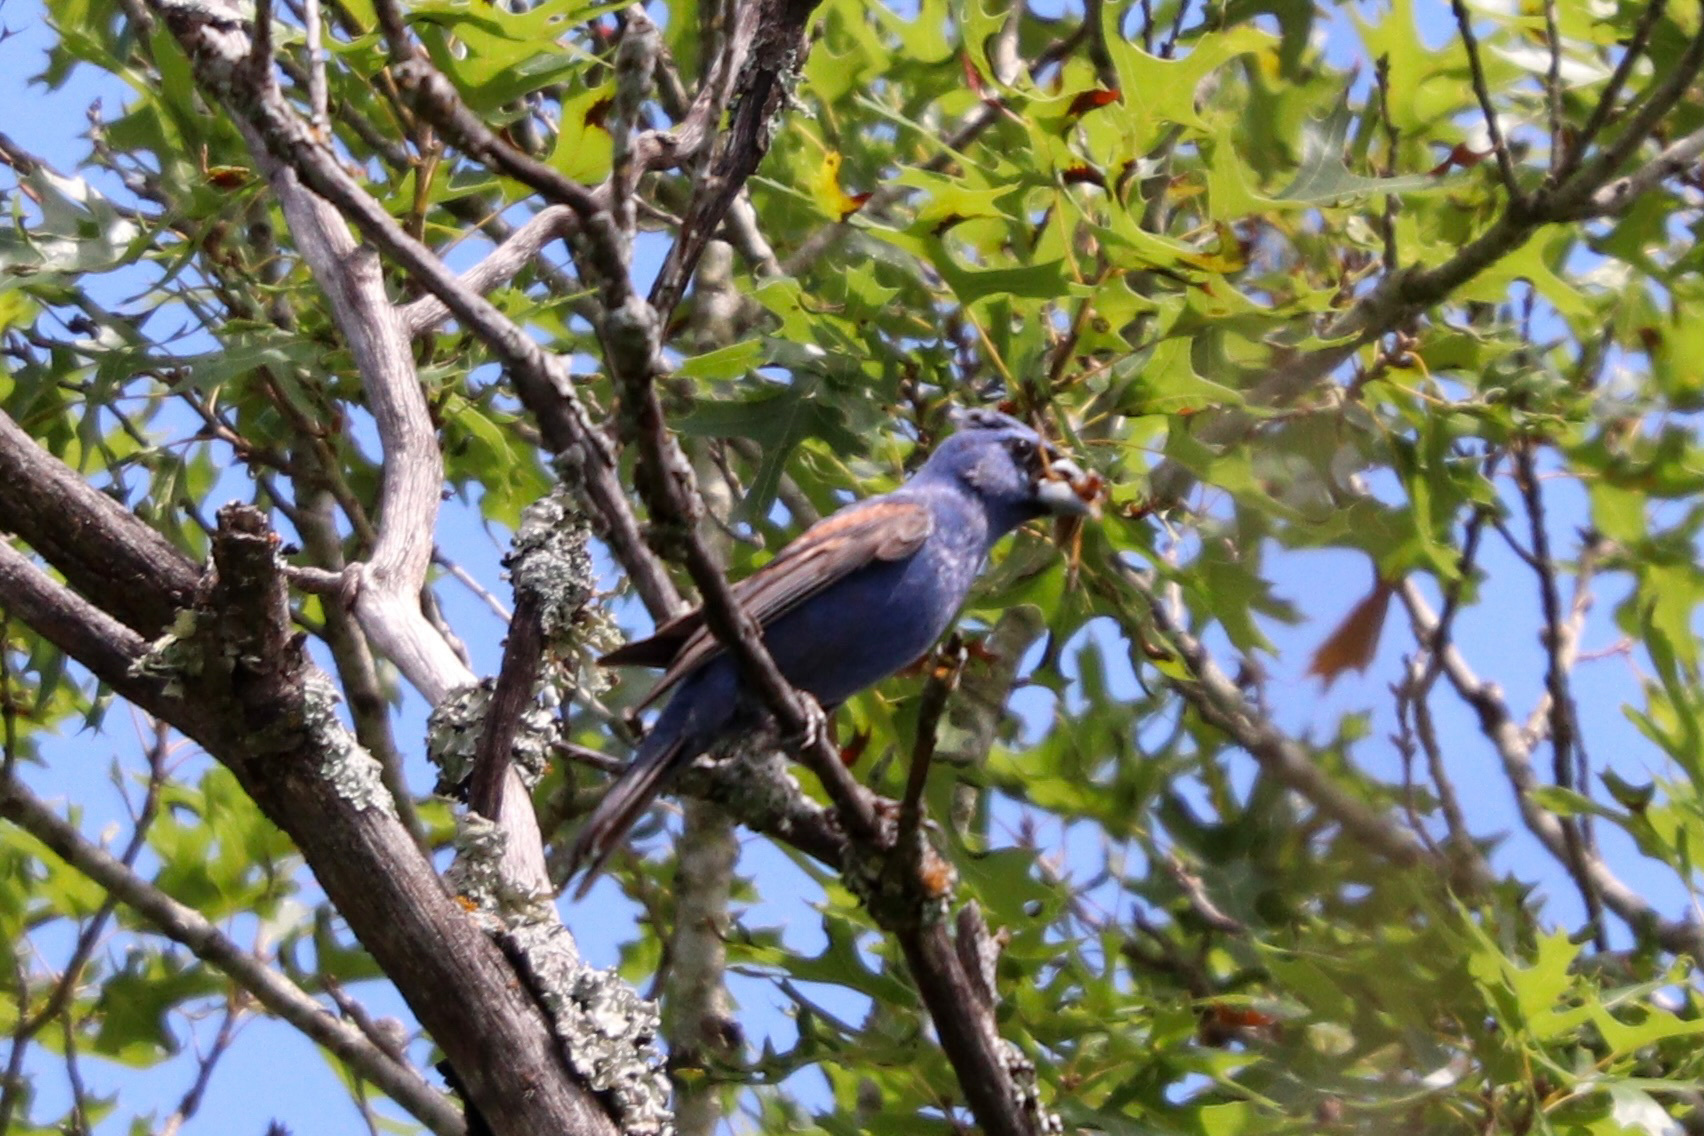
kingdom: Animalia
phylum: Chordata
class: Aves
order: Passeriformes
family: Cardinalidae
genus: Passerina
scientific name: Passerina caerulea
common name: Blue grosbeak
